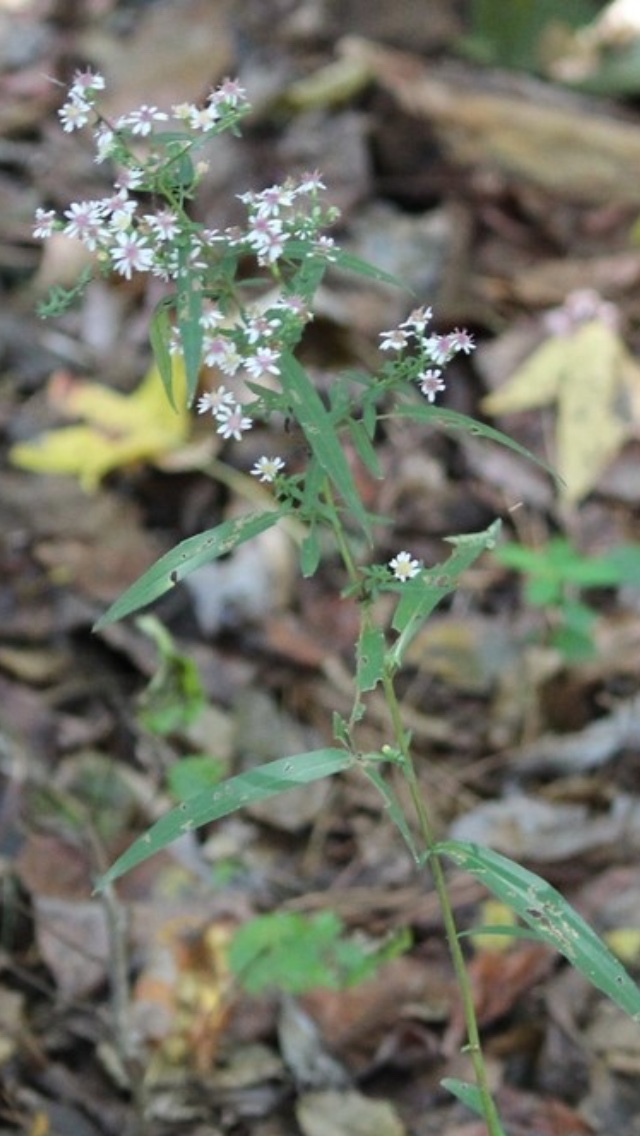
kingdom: Plantae
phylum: Tracheophyta
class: Magnoliopsida
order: Asterales
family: Asteraceae
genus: Symphyotrichum
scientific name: Symphyotrichum lateriflorum
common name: Calico aster
